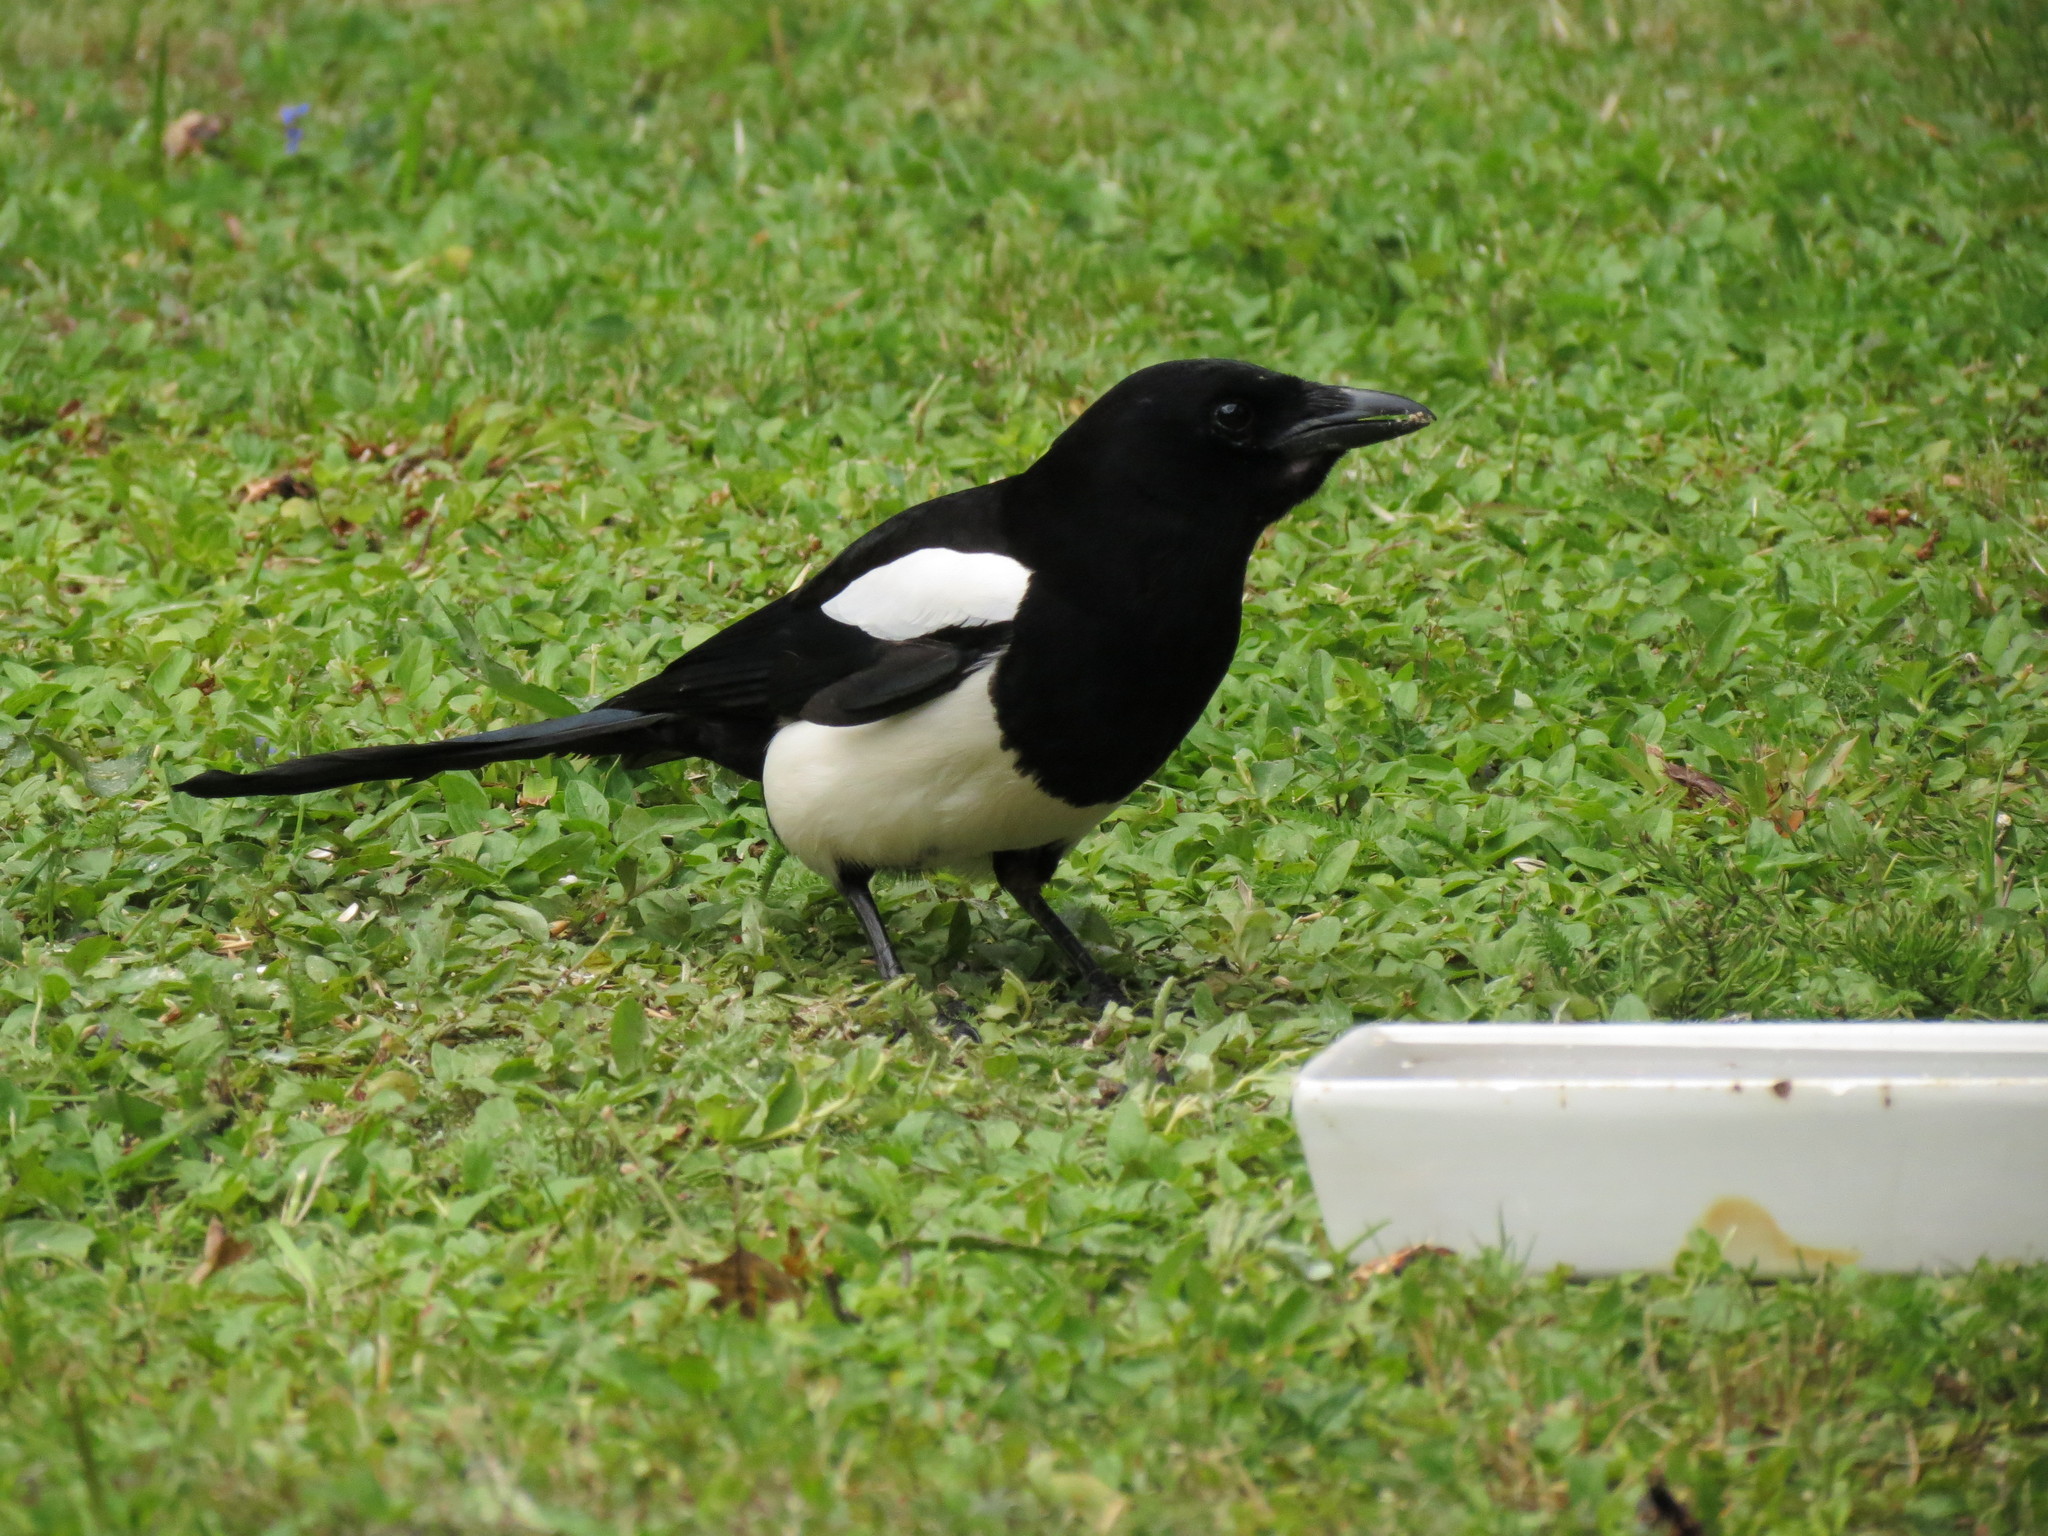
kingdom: Animalia
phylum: Chordata
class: Aves
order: Passeriformes
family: Corvidae
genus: Pica
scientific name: Pica pica
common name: Eurasian magpie
